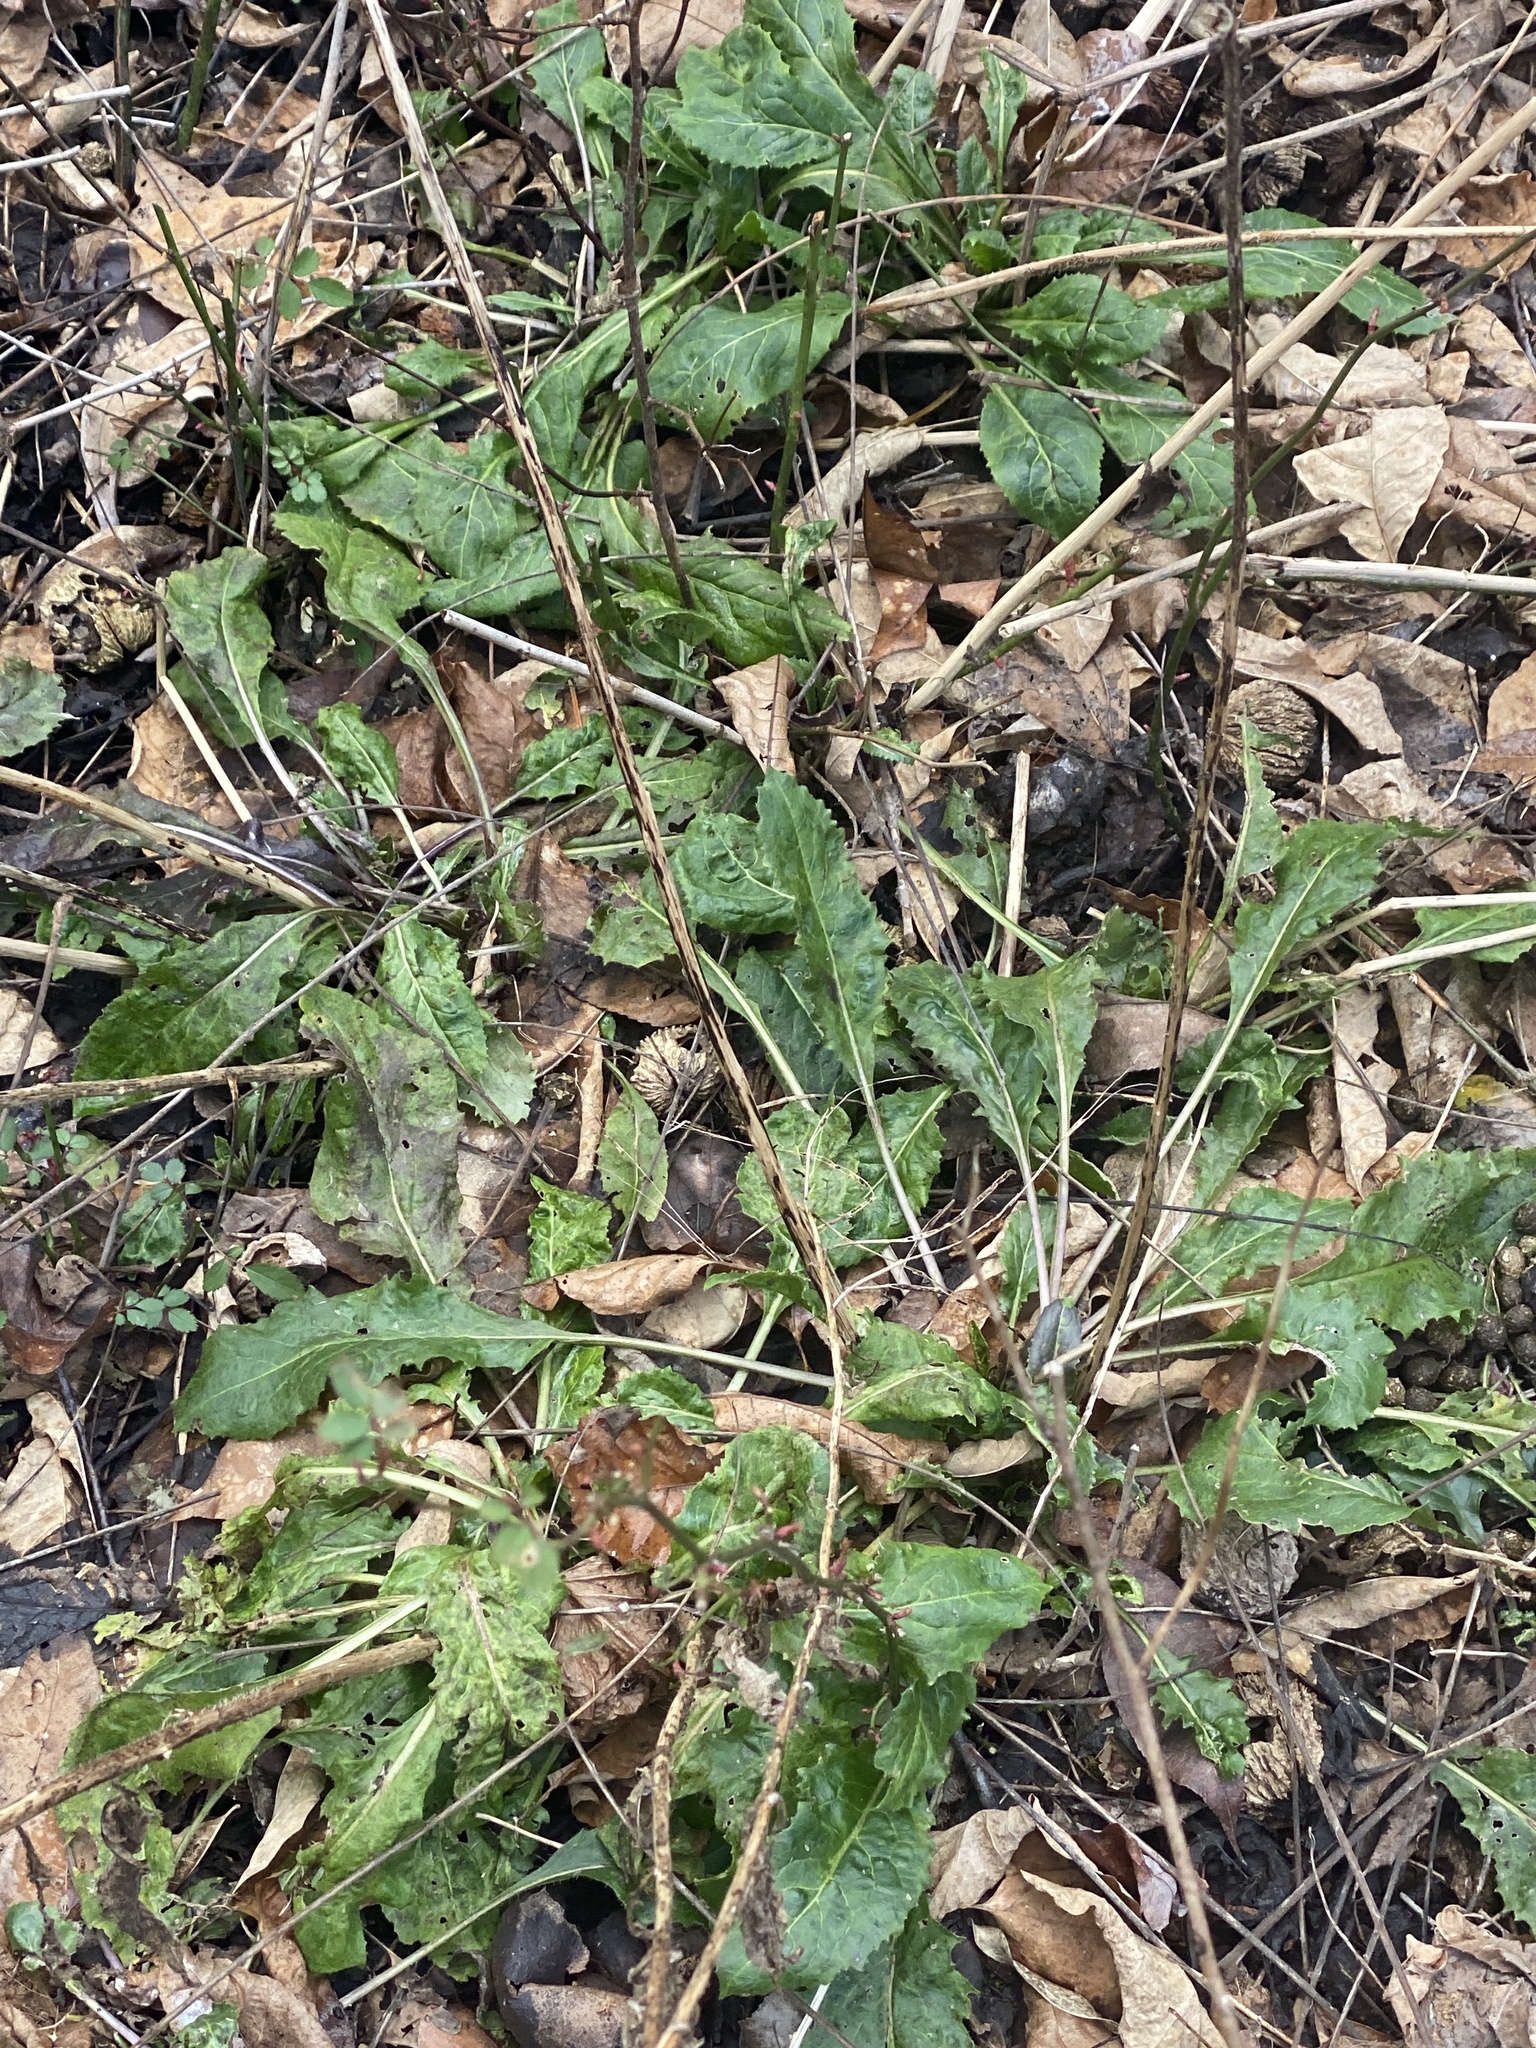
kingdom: Plantae
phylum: Tracheophyta
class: Magnoliopsida
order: Brassicales
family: Brassicaceae
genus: Hesperis
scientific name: Hesperis matronalis
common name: Dame's-violet
